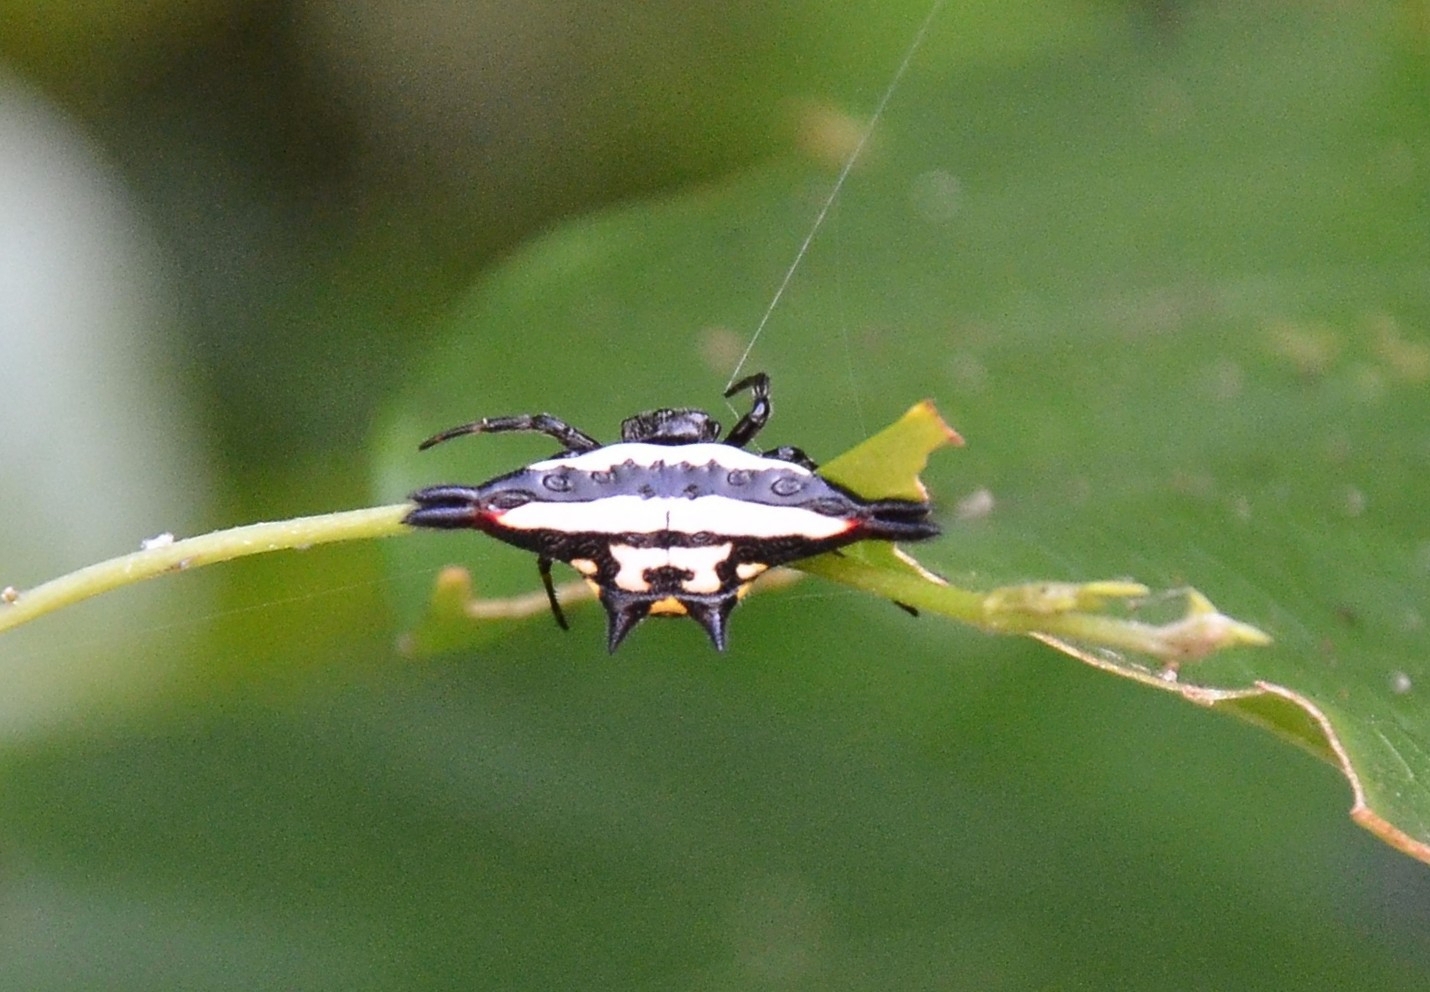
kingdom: Animalia
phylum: Arthropoda
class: Arachnida
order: Araneae
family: Araneidae
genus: Gasteracantha
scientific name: Gasteracantha geminata
